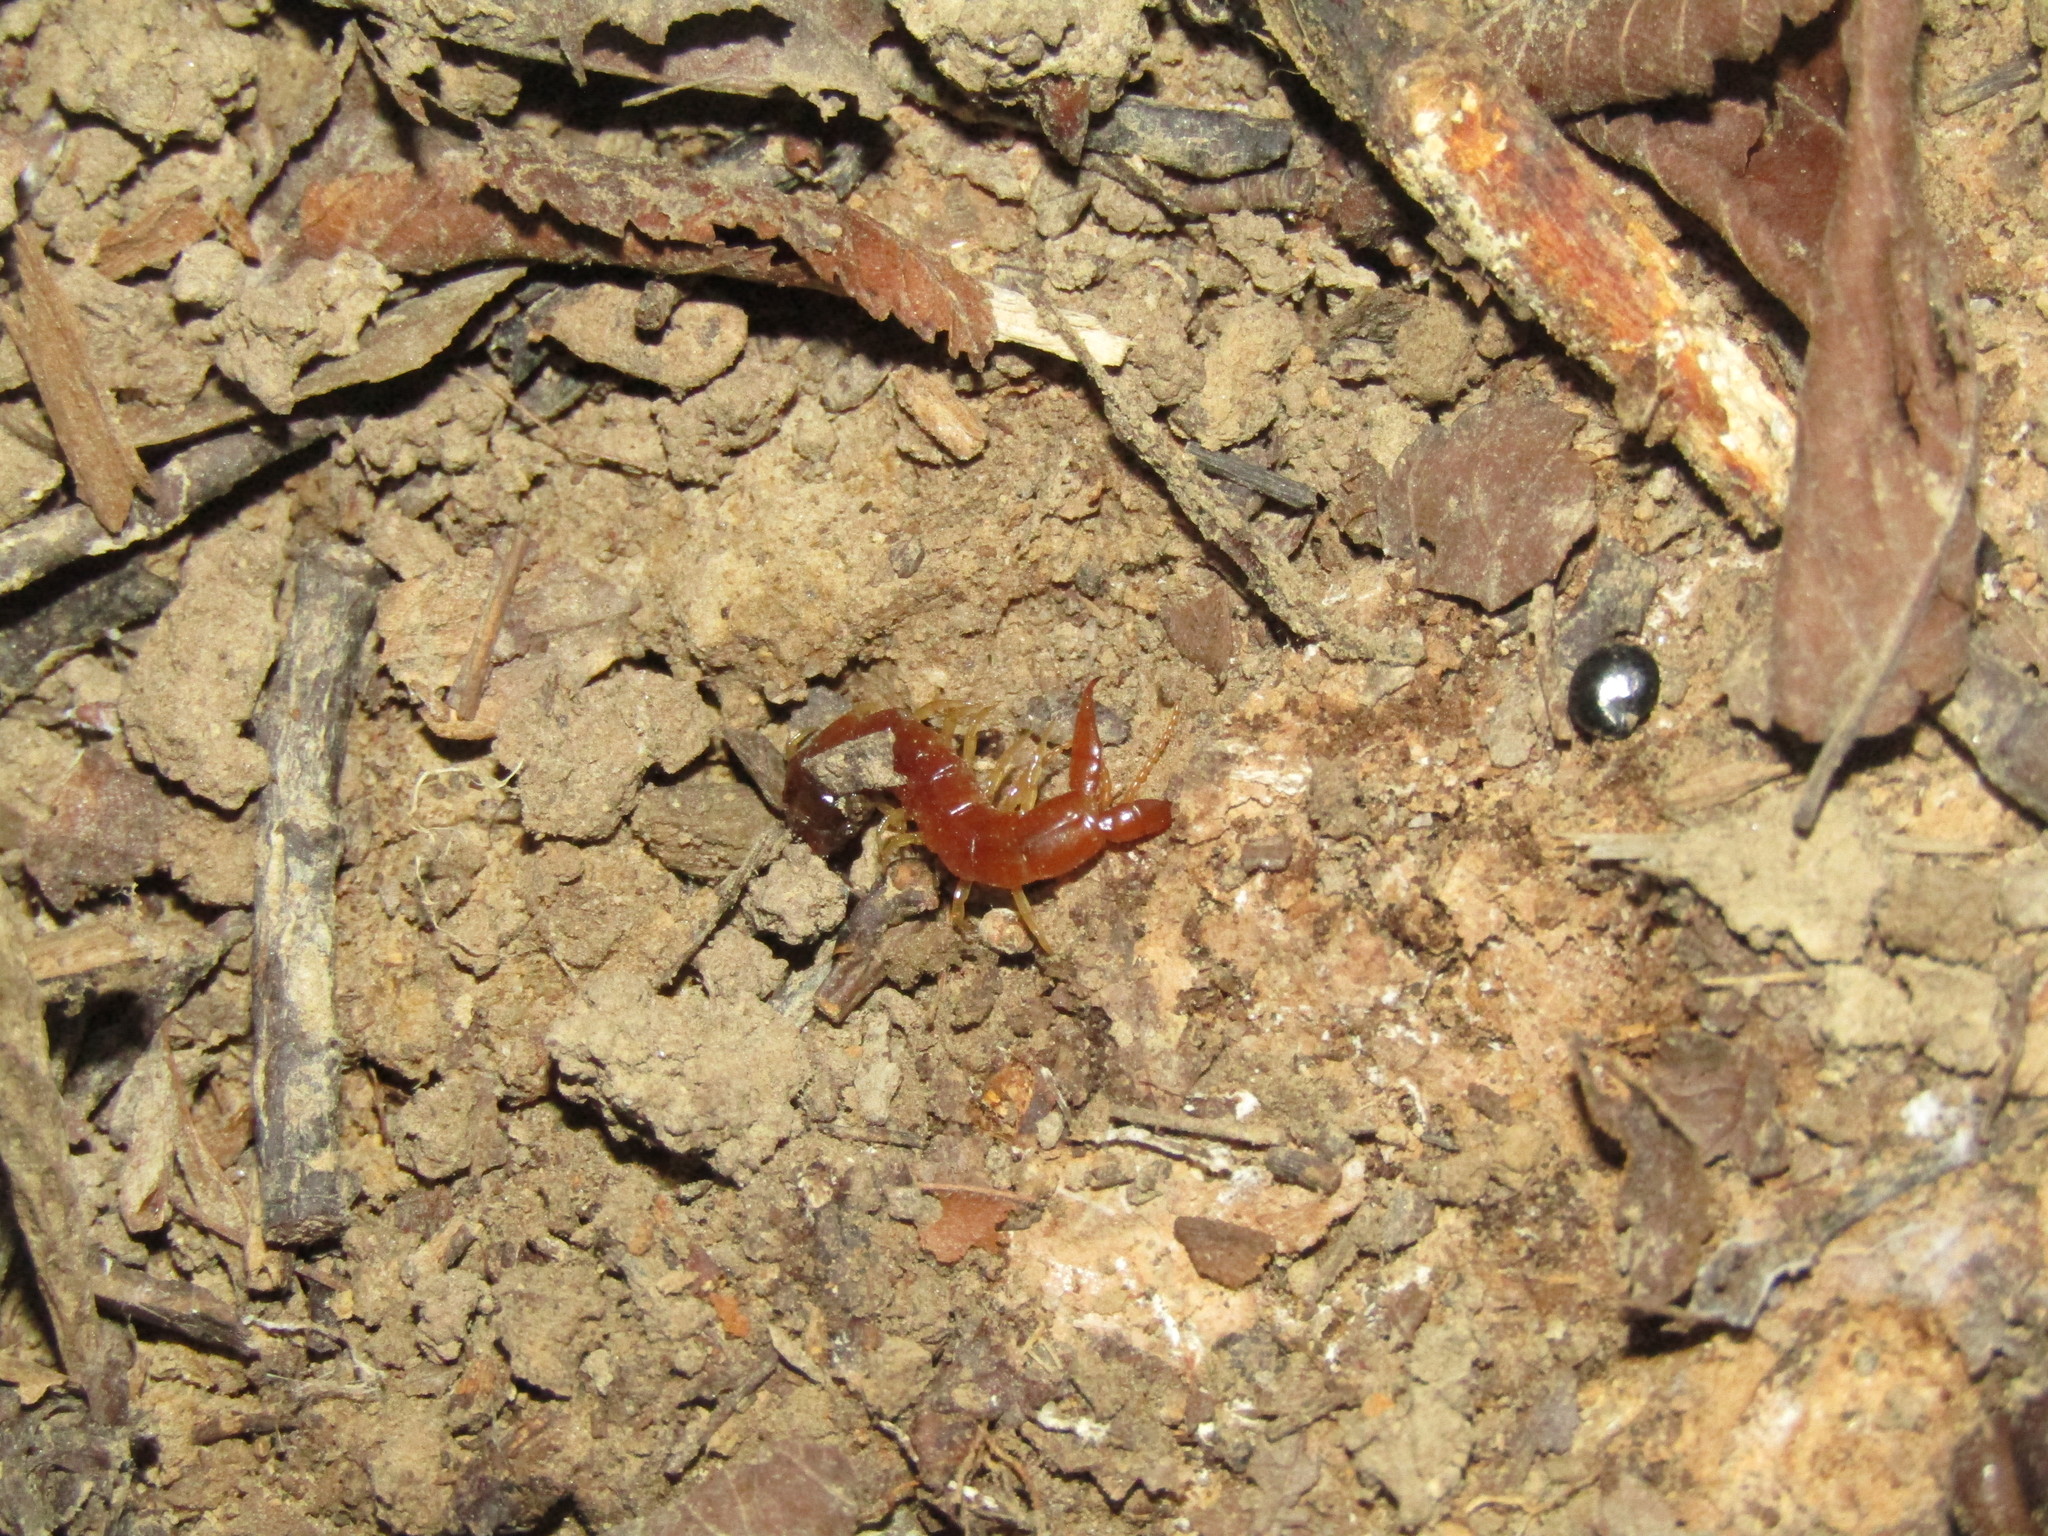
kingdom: Animalia
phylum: Arthropoda
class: Chilopoda
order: Scolopendromorpha
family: Cryptopidae
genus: Theatops
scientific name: Theatops posticus
